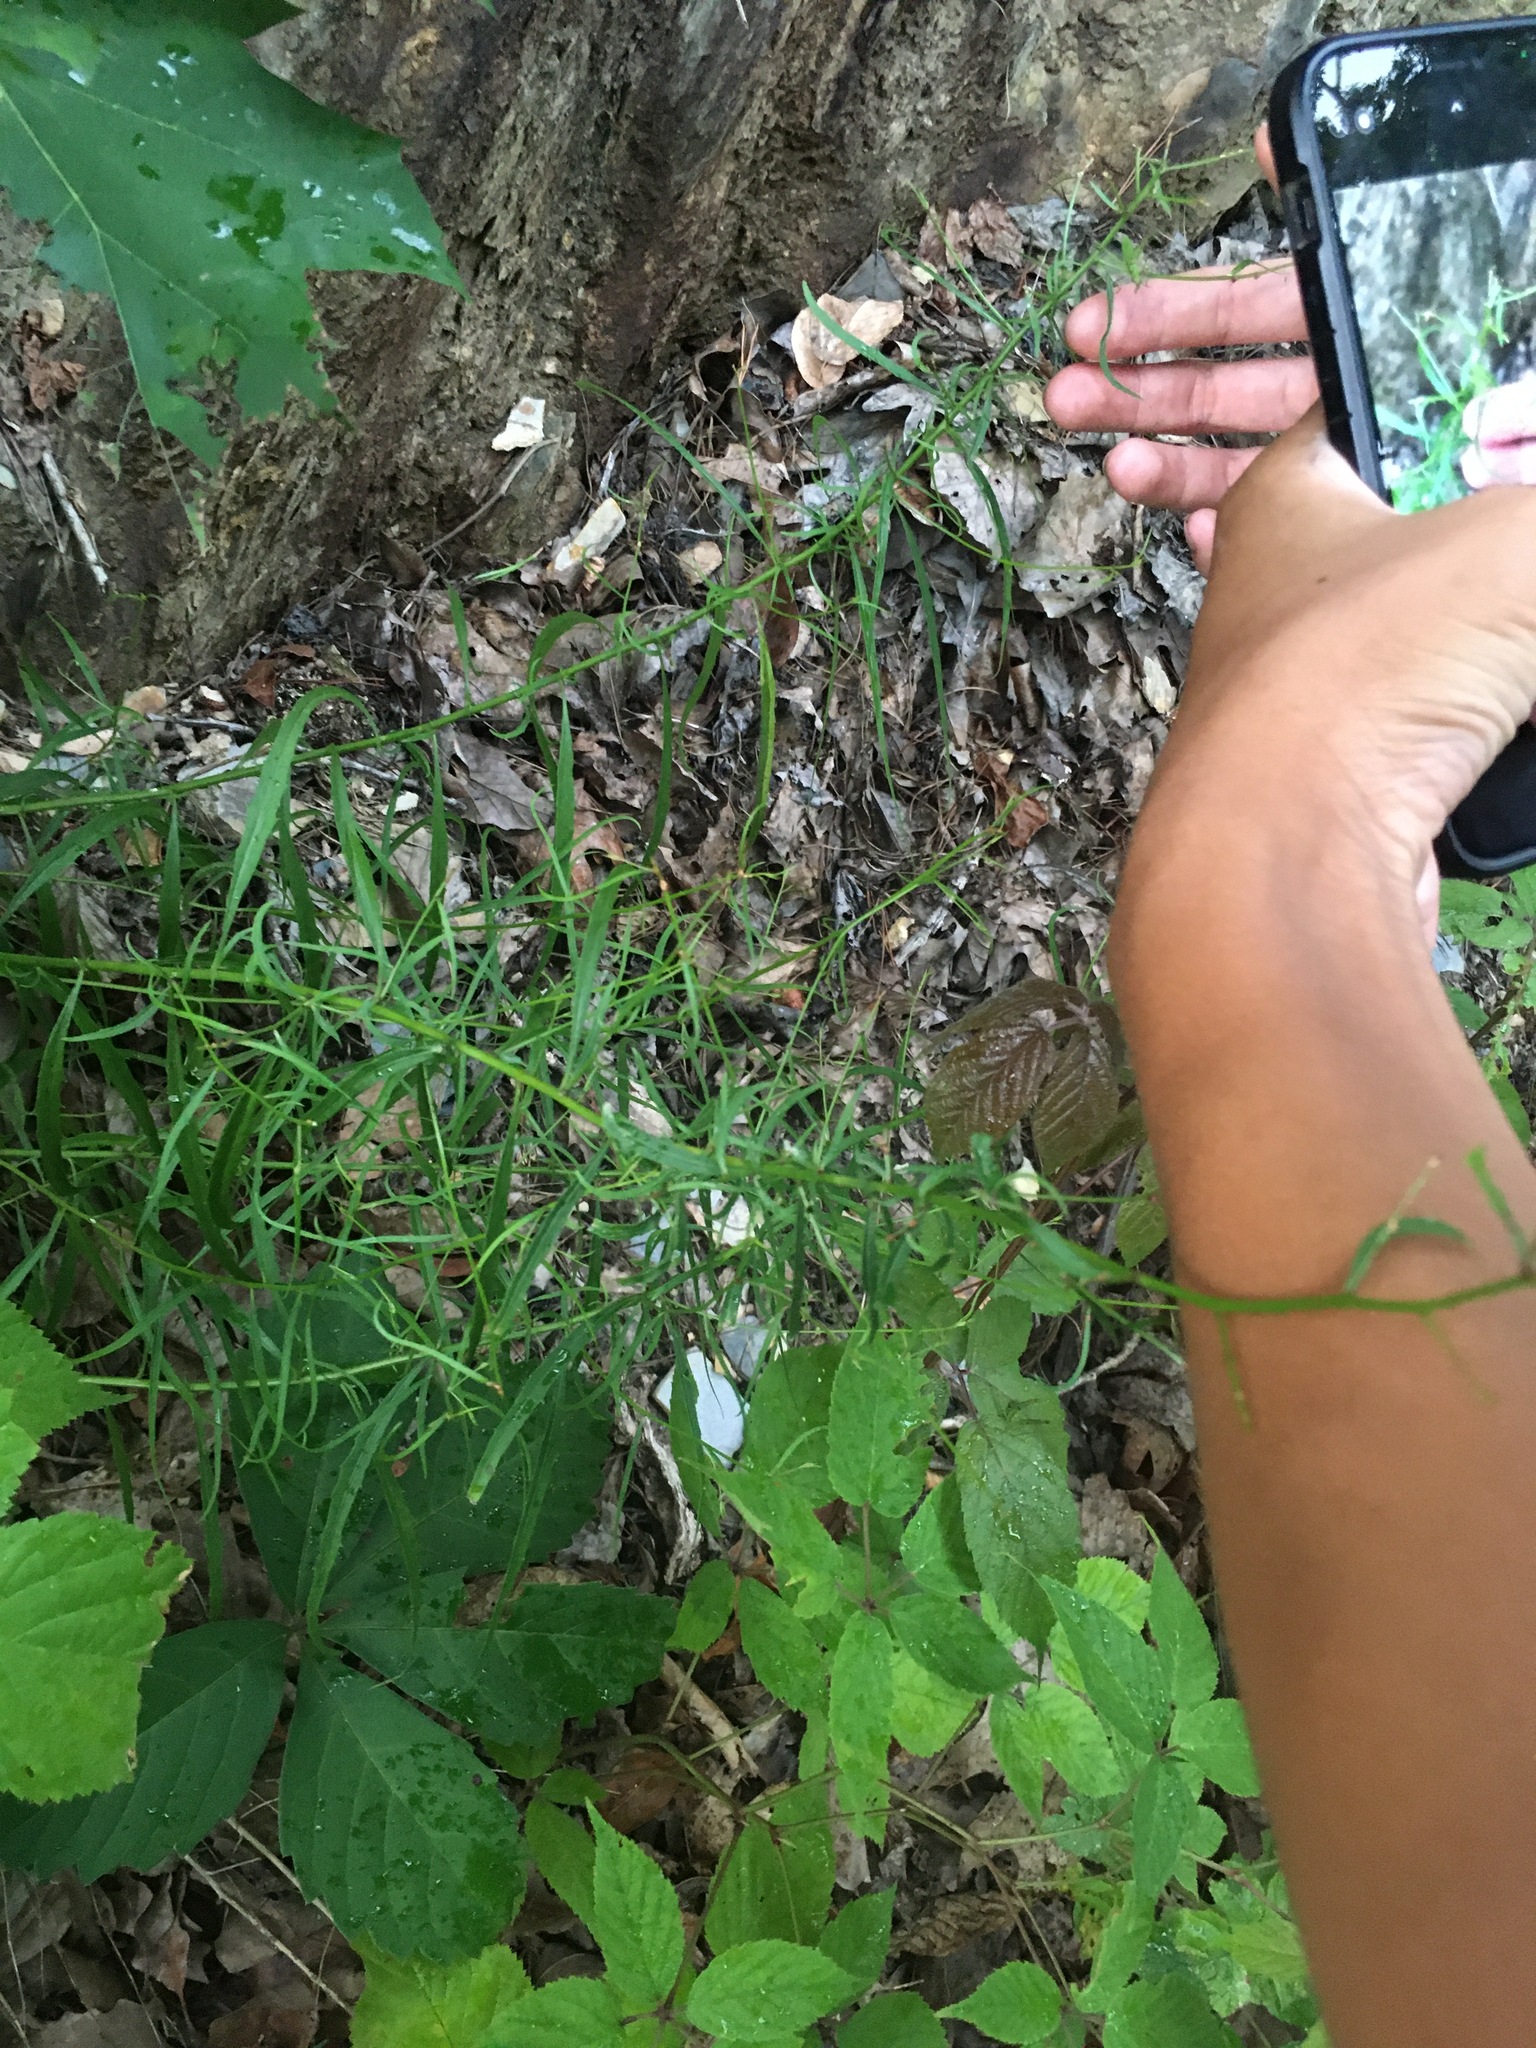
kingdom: Plantae
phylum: Tracheophyta
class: Magnoliopsida
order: Asterales
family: Campanulaceae
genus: Campanula
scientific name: Campanula divaricata
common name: Appalachian bellflower
